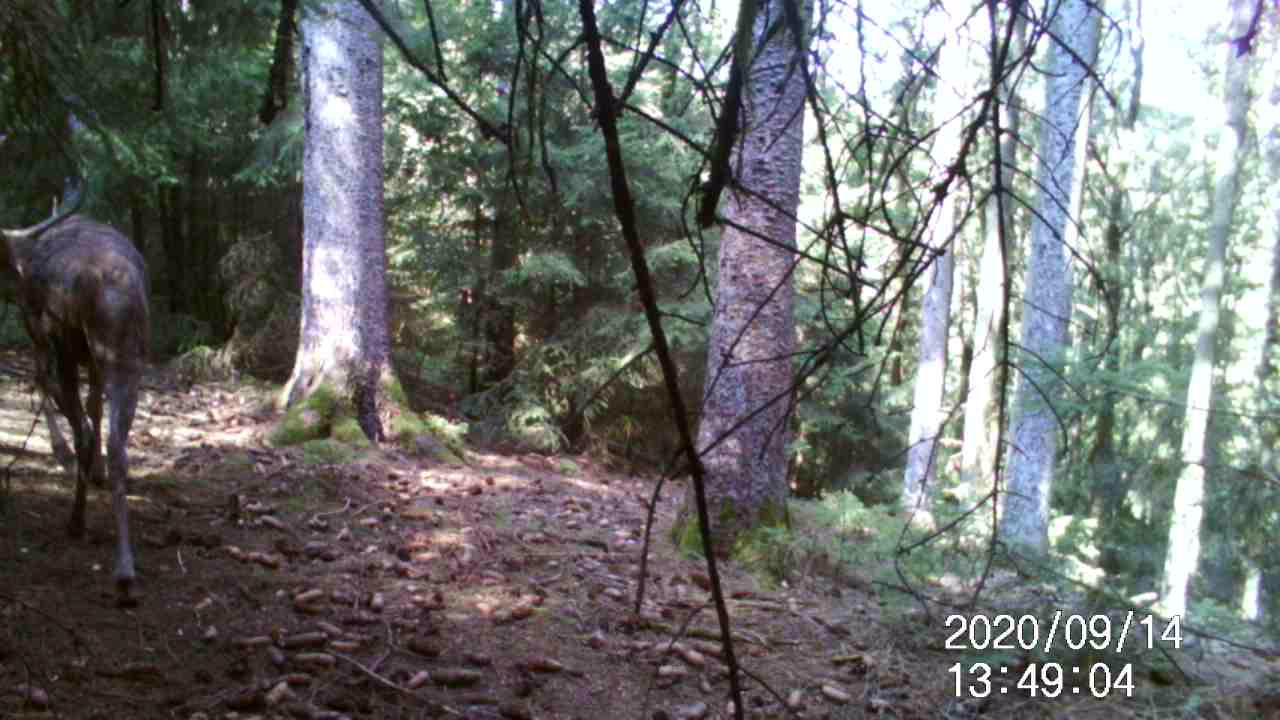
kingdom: Animalia
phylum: Chordata
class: Mammalia
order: Artiodactyla
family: Cervidae
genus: Cervus
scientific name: Cervus elaphus
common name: Red deer
